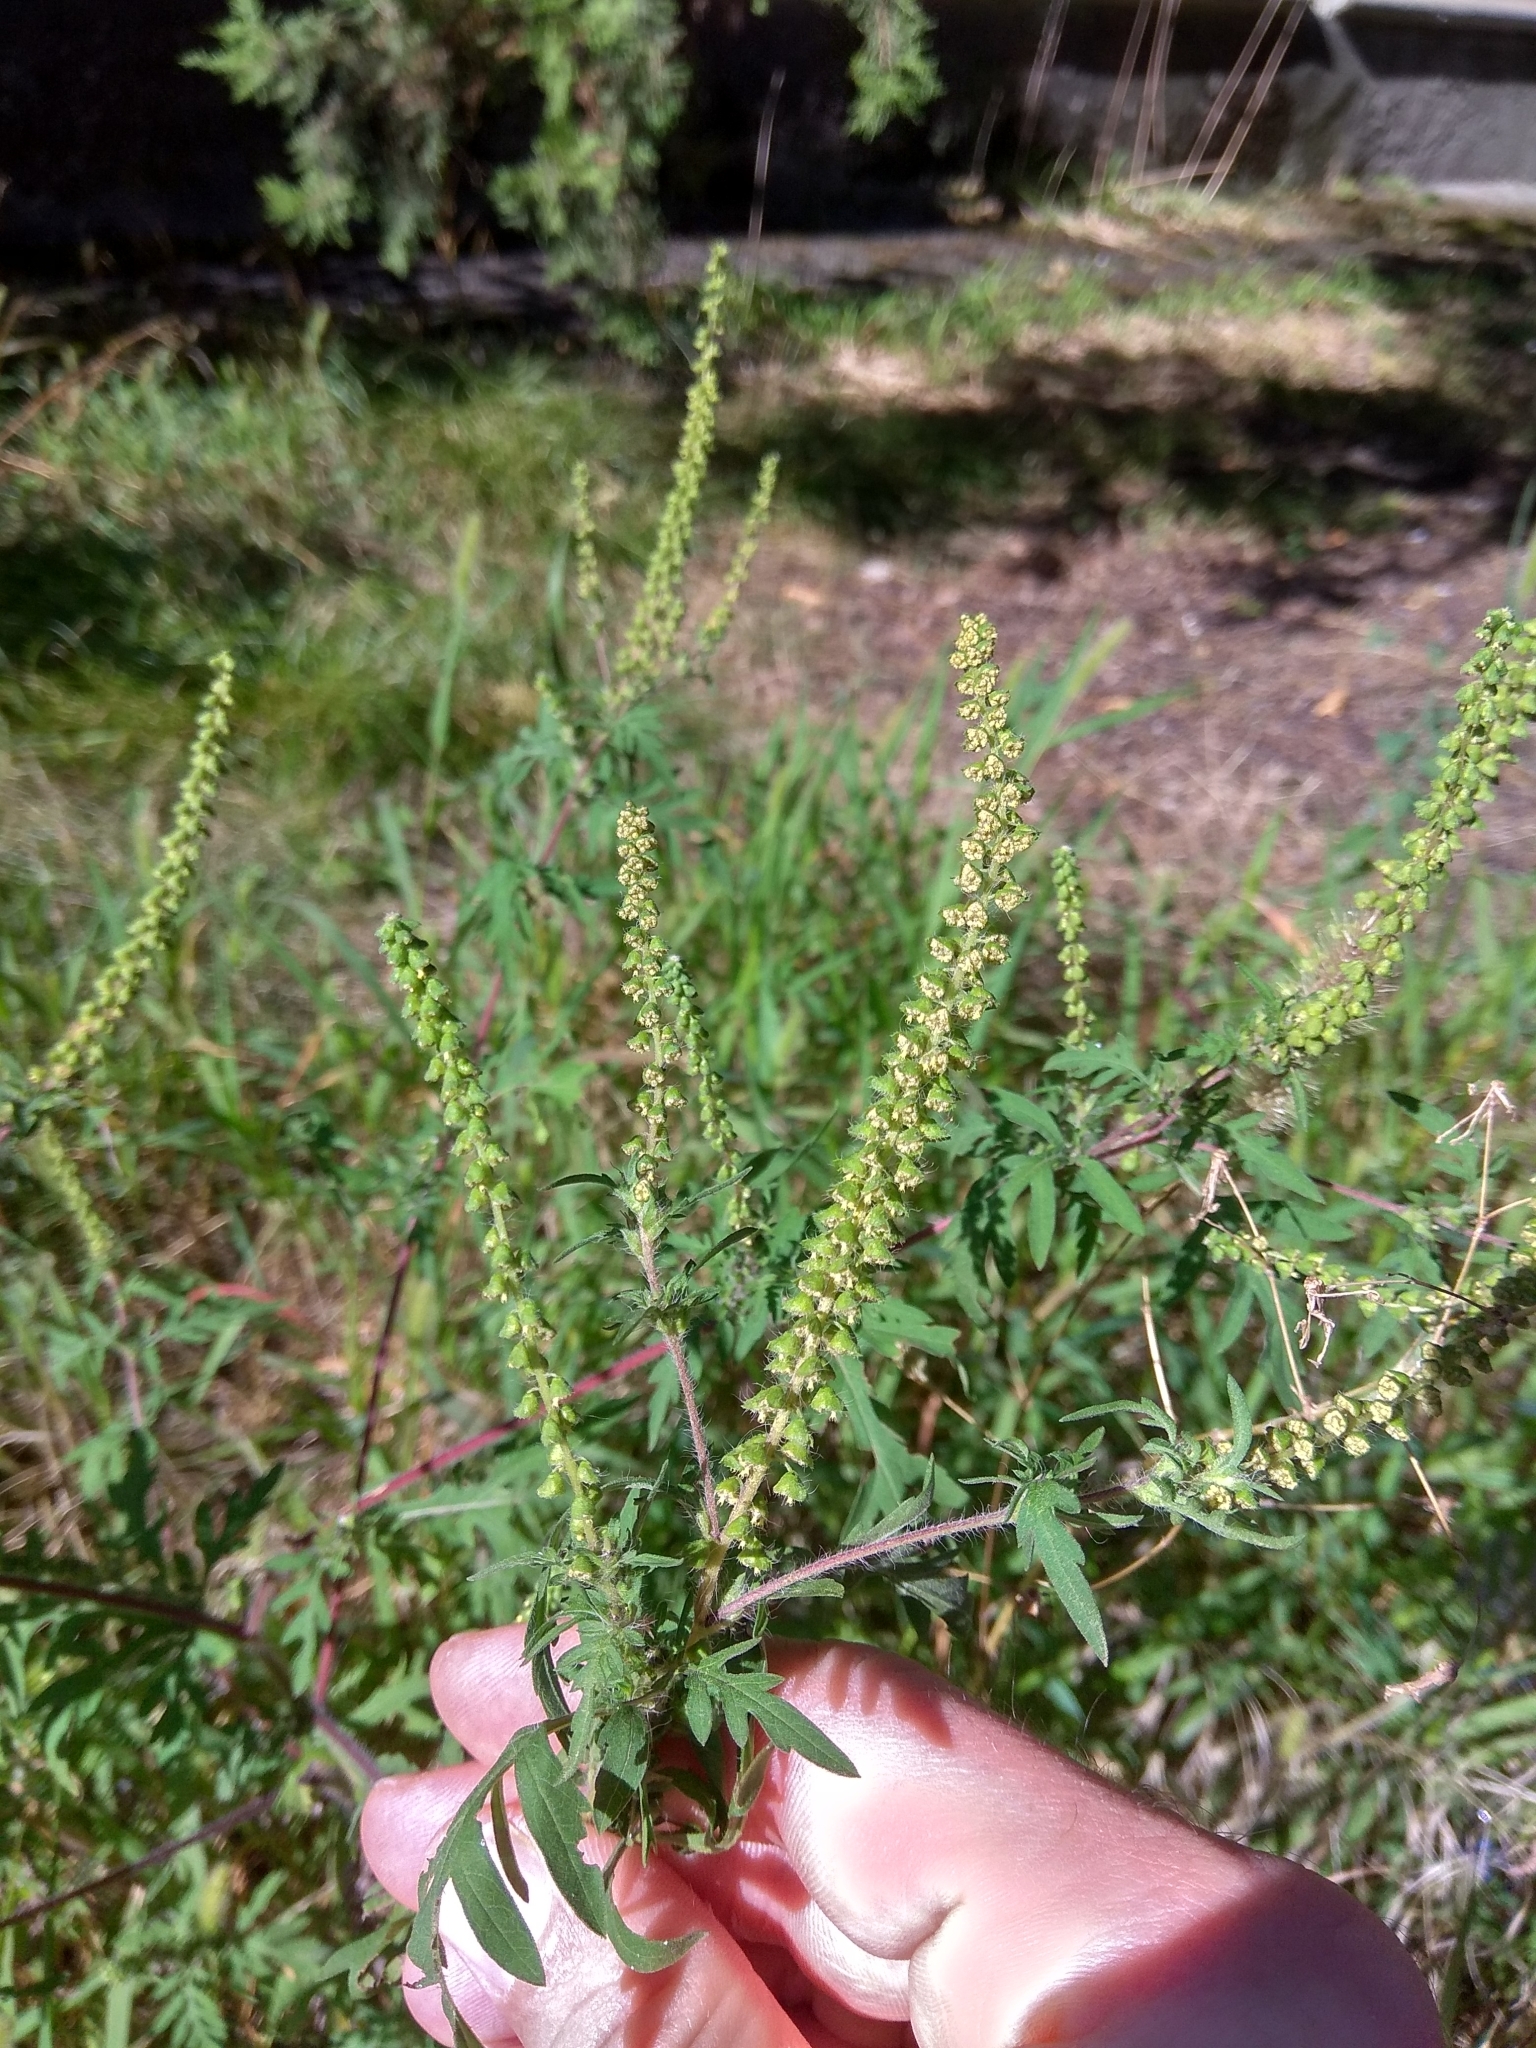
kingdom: Plantae
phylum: Tracheophyta
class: Magnoliopsida
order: Asterales
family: Asteraceae
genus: Ambrosia
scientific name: Ambrosia artemisiifolia
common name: Annual ragweed
